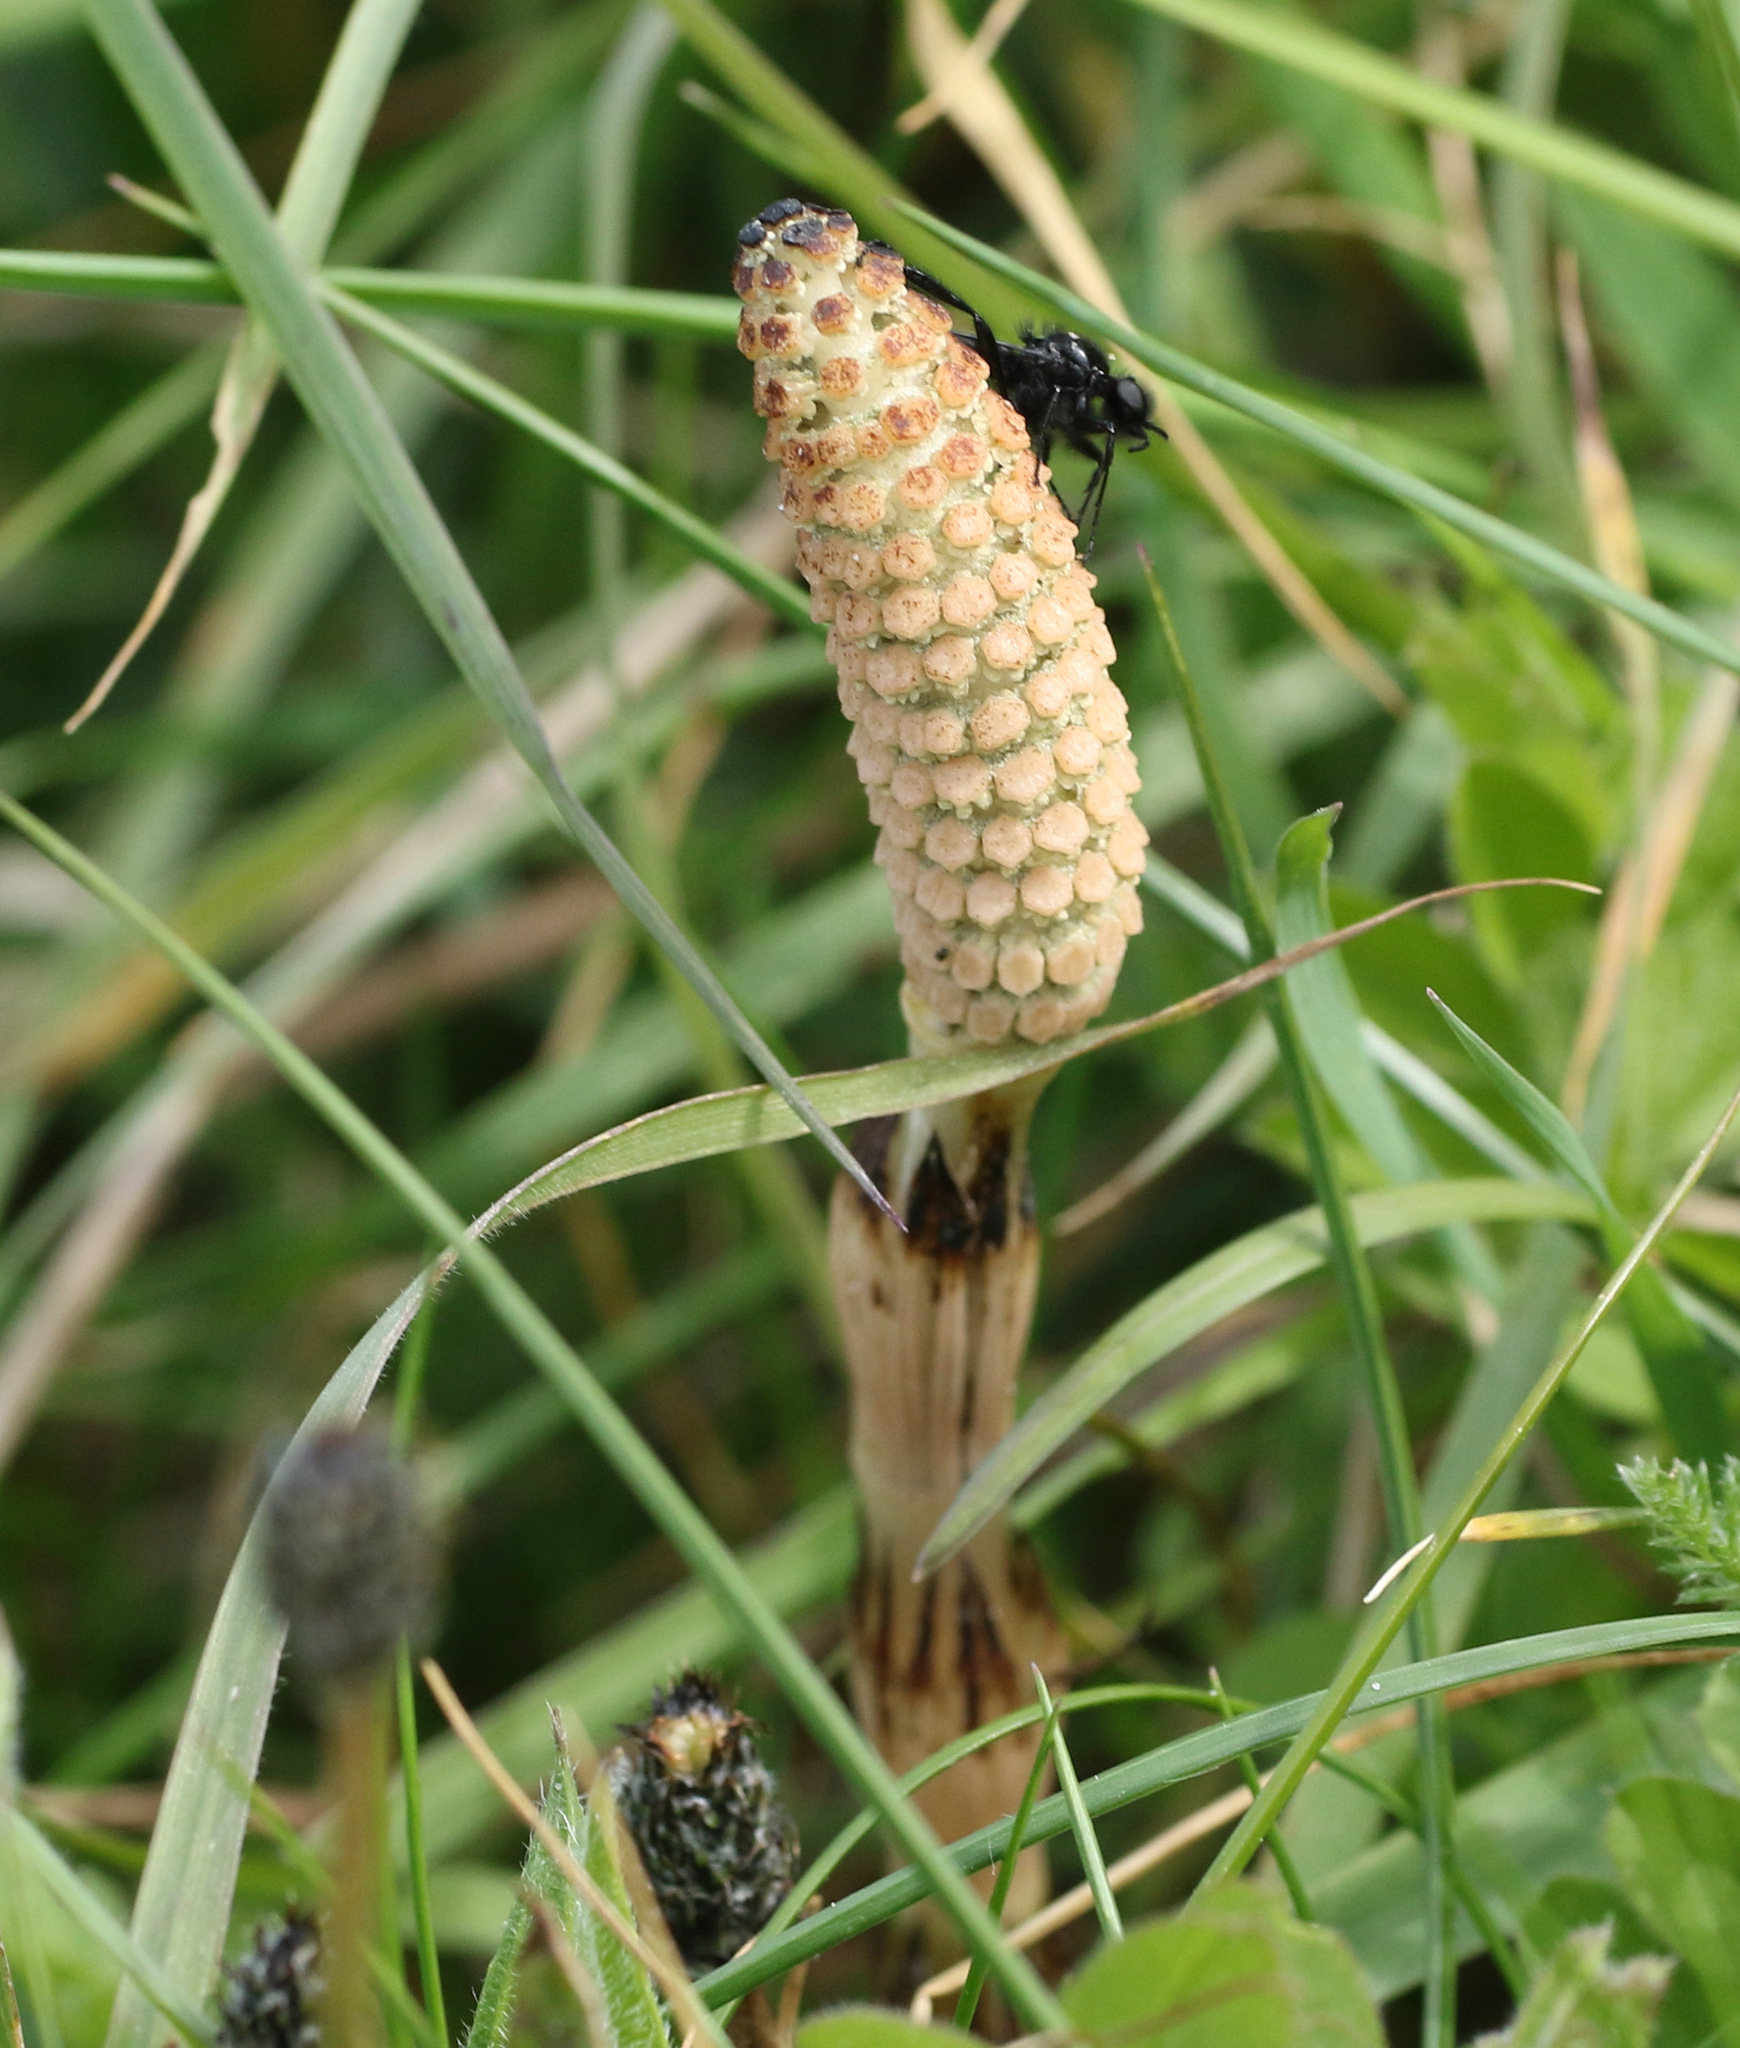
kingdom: Plantae
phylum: Tracheophyta
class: Polypodiopsida
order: Equisetales
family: Equisetaceae
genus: Equisetum
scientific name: Equisetum arvense
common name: Field horsetail
